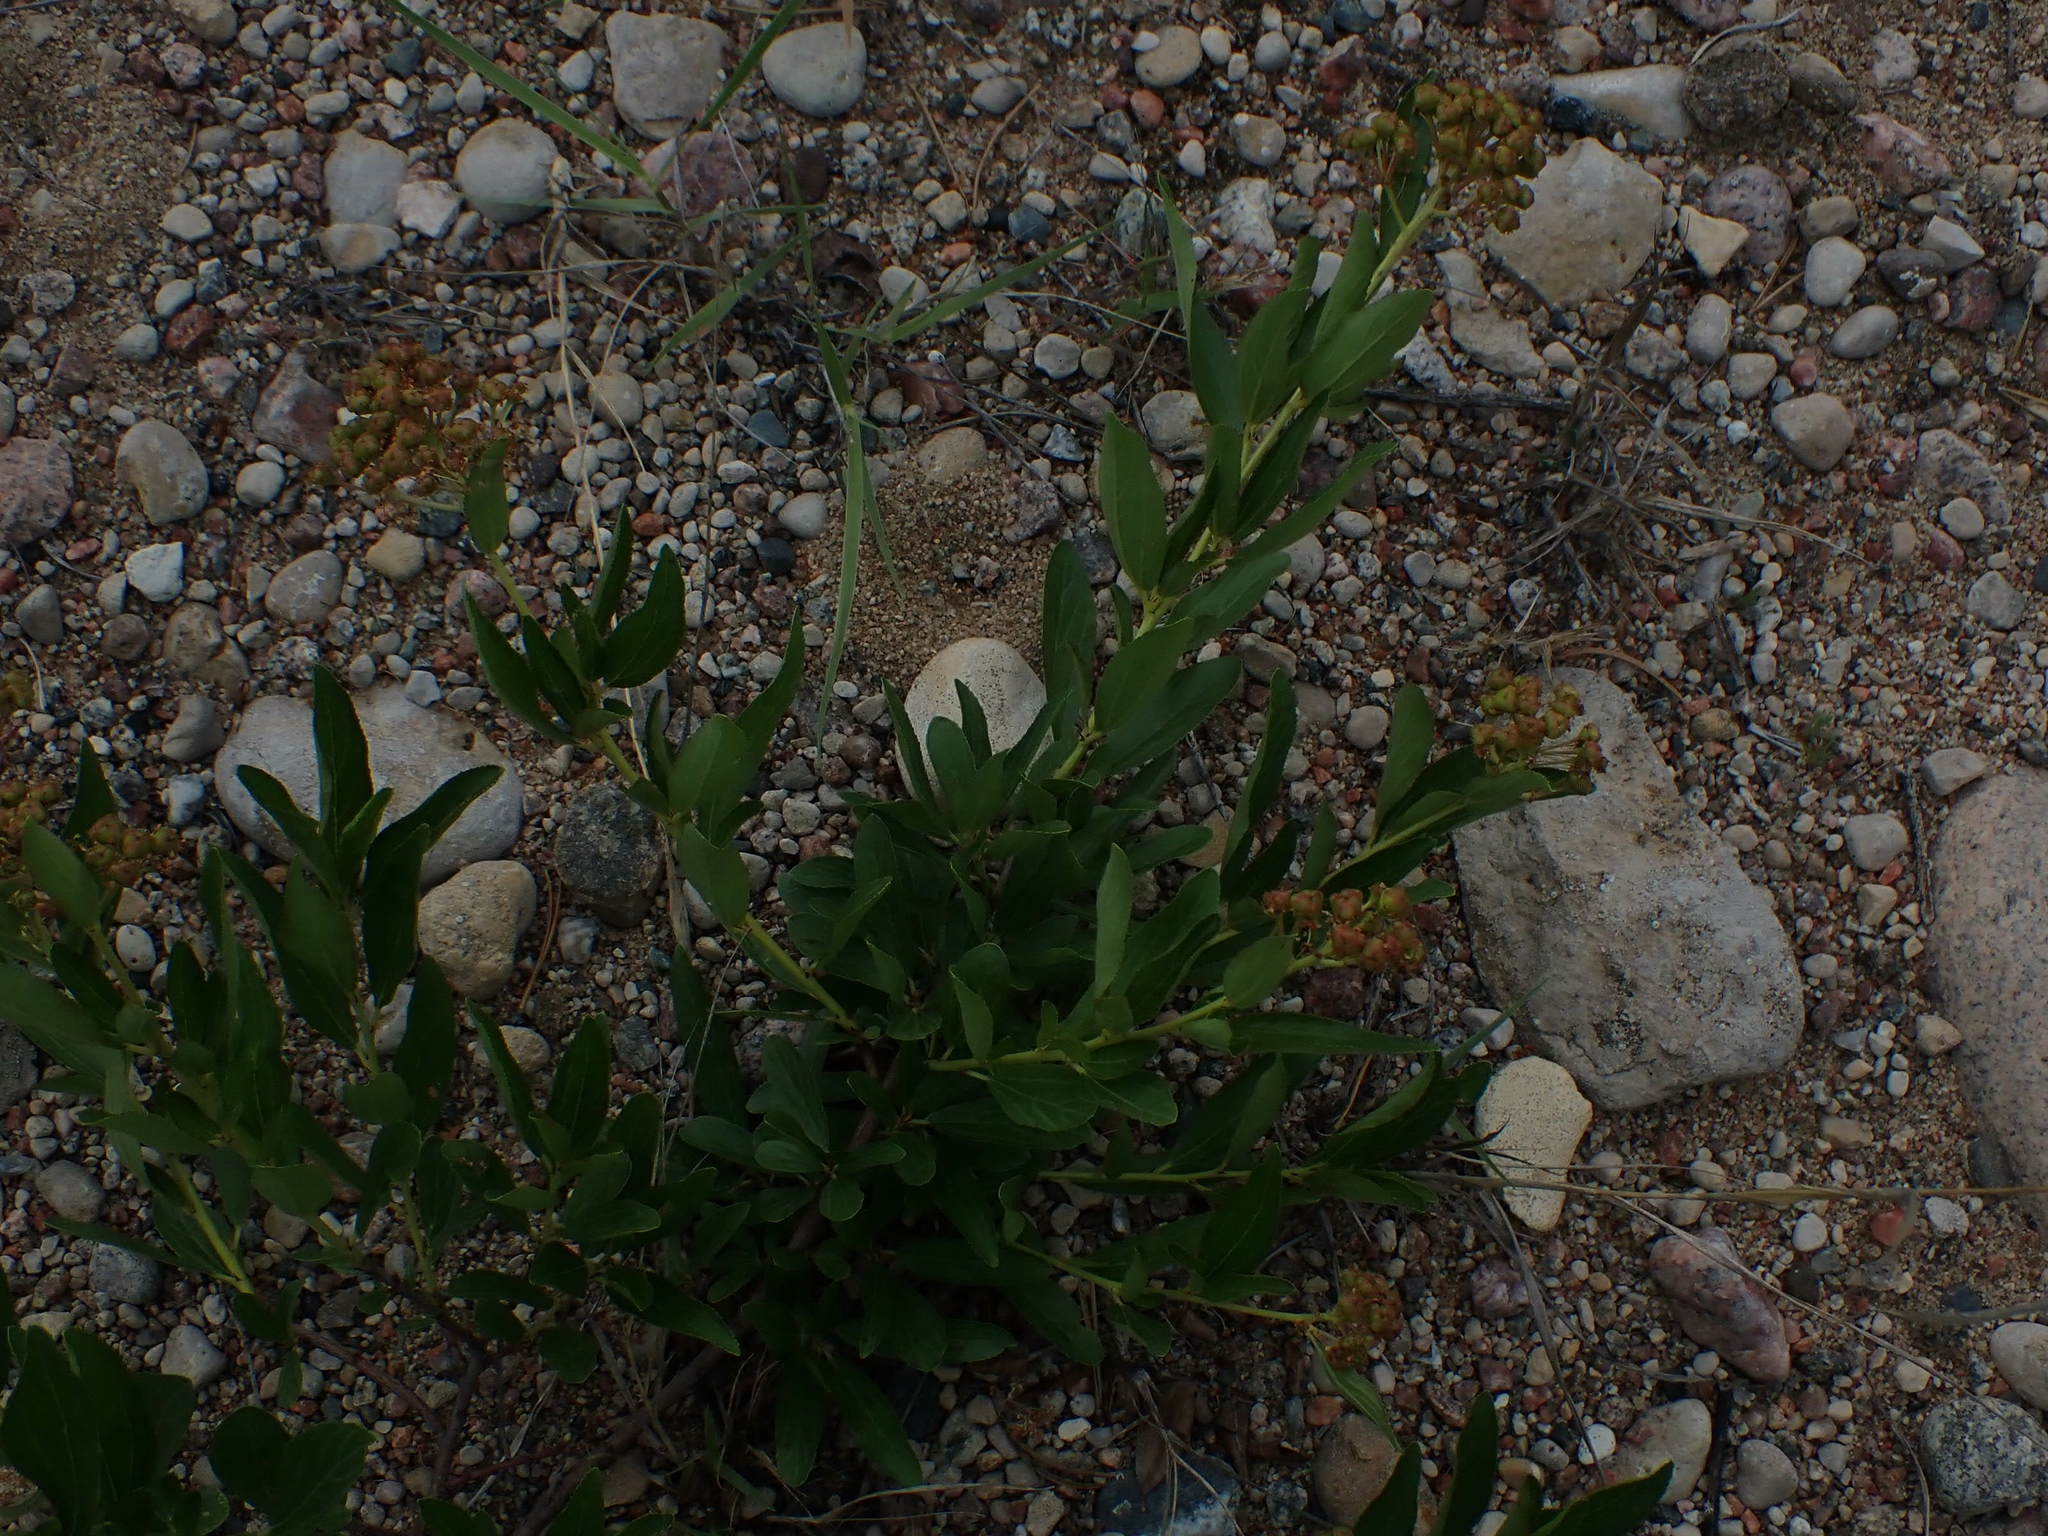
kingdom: Plantae
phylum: Tracheophyta
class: Magnoliopsida
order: Rosales
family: Rhamnaceae
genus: Ceanothus
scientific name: Ceanothus herbaceus
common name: Inland ceanothus
